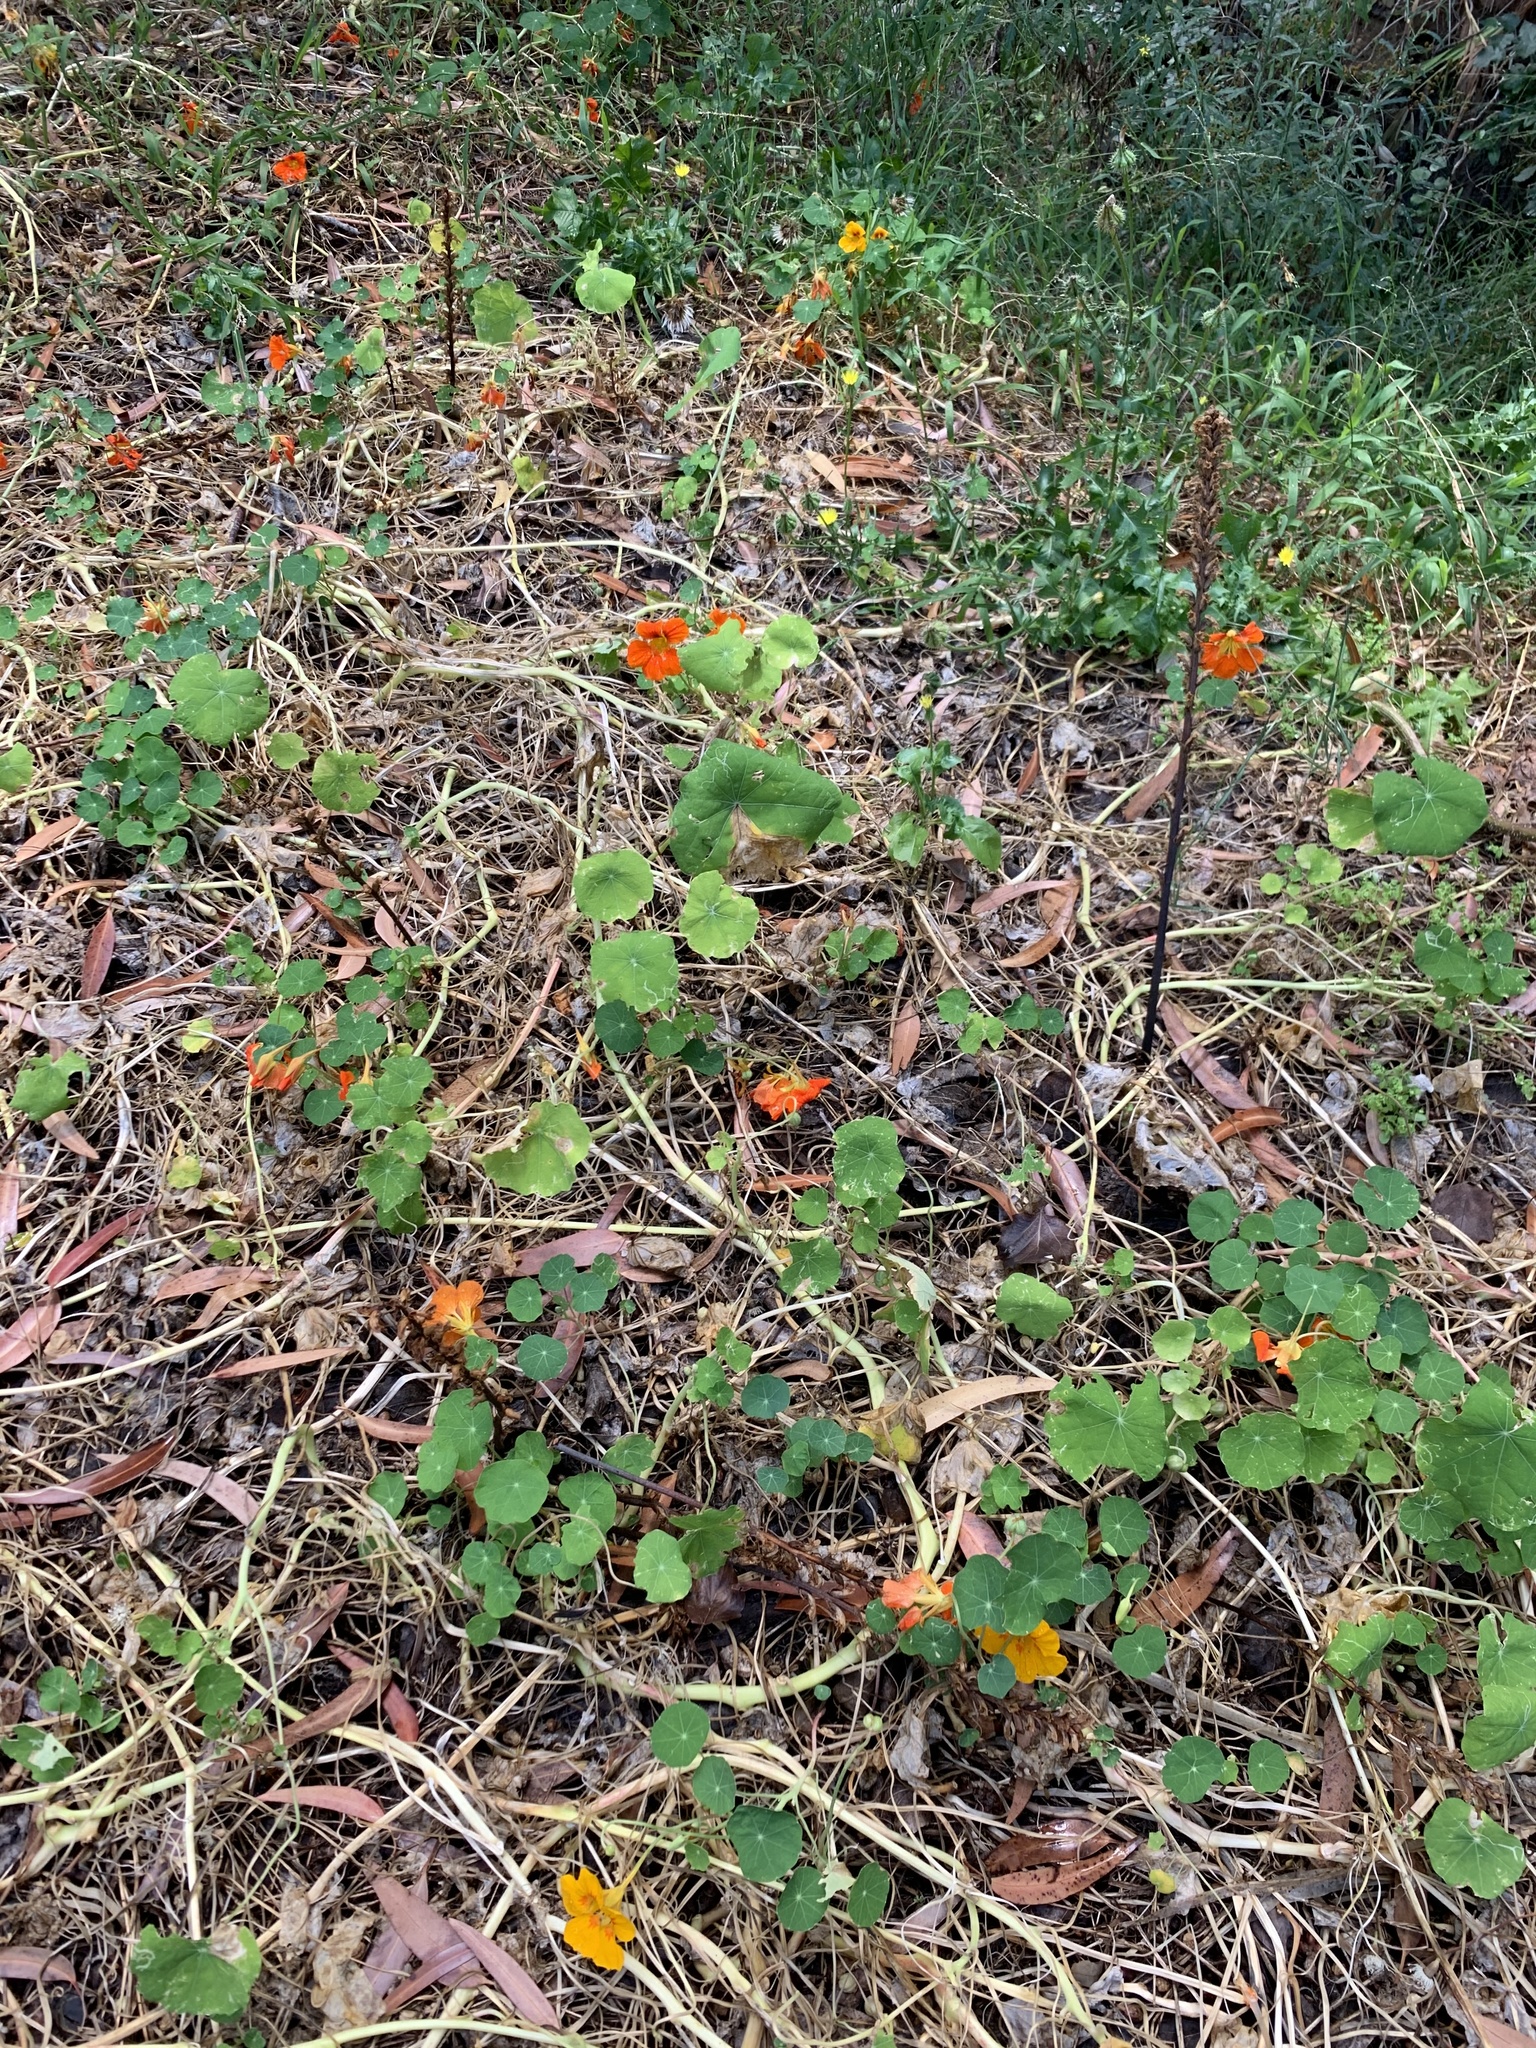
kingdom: Plantae
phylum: Tracheophyta
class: Magnoliopsida
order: Brassicales
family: Tropaeolaceae
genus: Tropaeolum
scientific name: Tropaeolum majus
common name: Nasturtium
